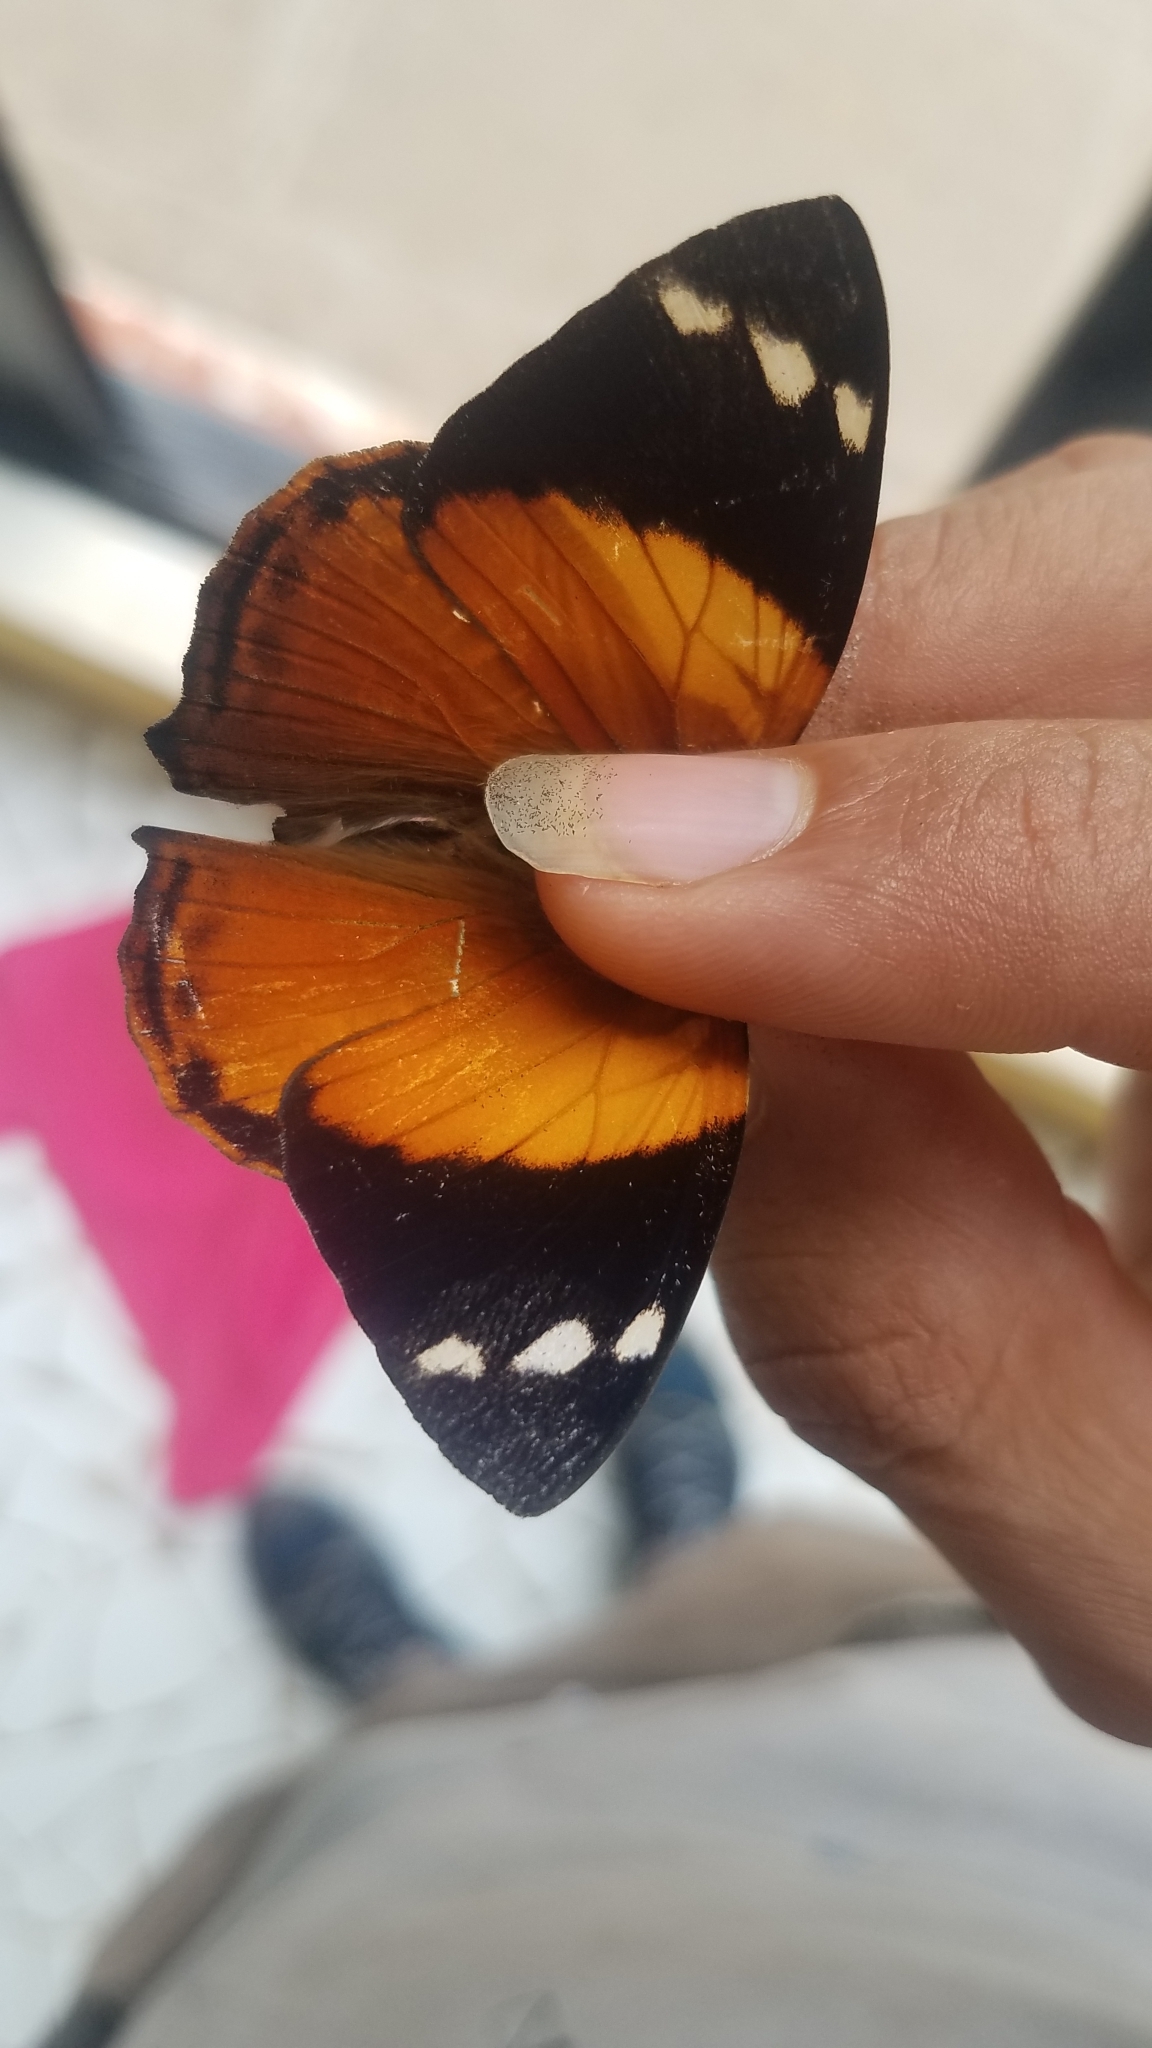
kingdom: Animalia
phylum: Arthropoda
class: Insecta
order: Lepidoptera
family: Nymphalidae
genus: Smyrna
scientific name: Smyrna blomfildia
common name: Blomfild's beauty
